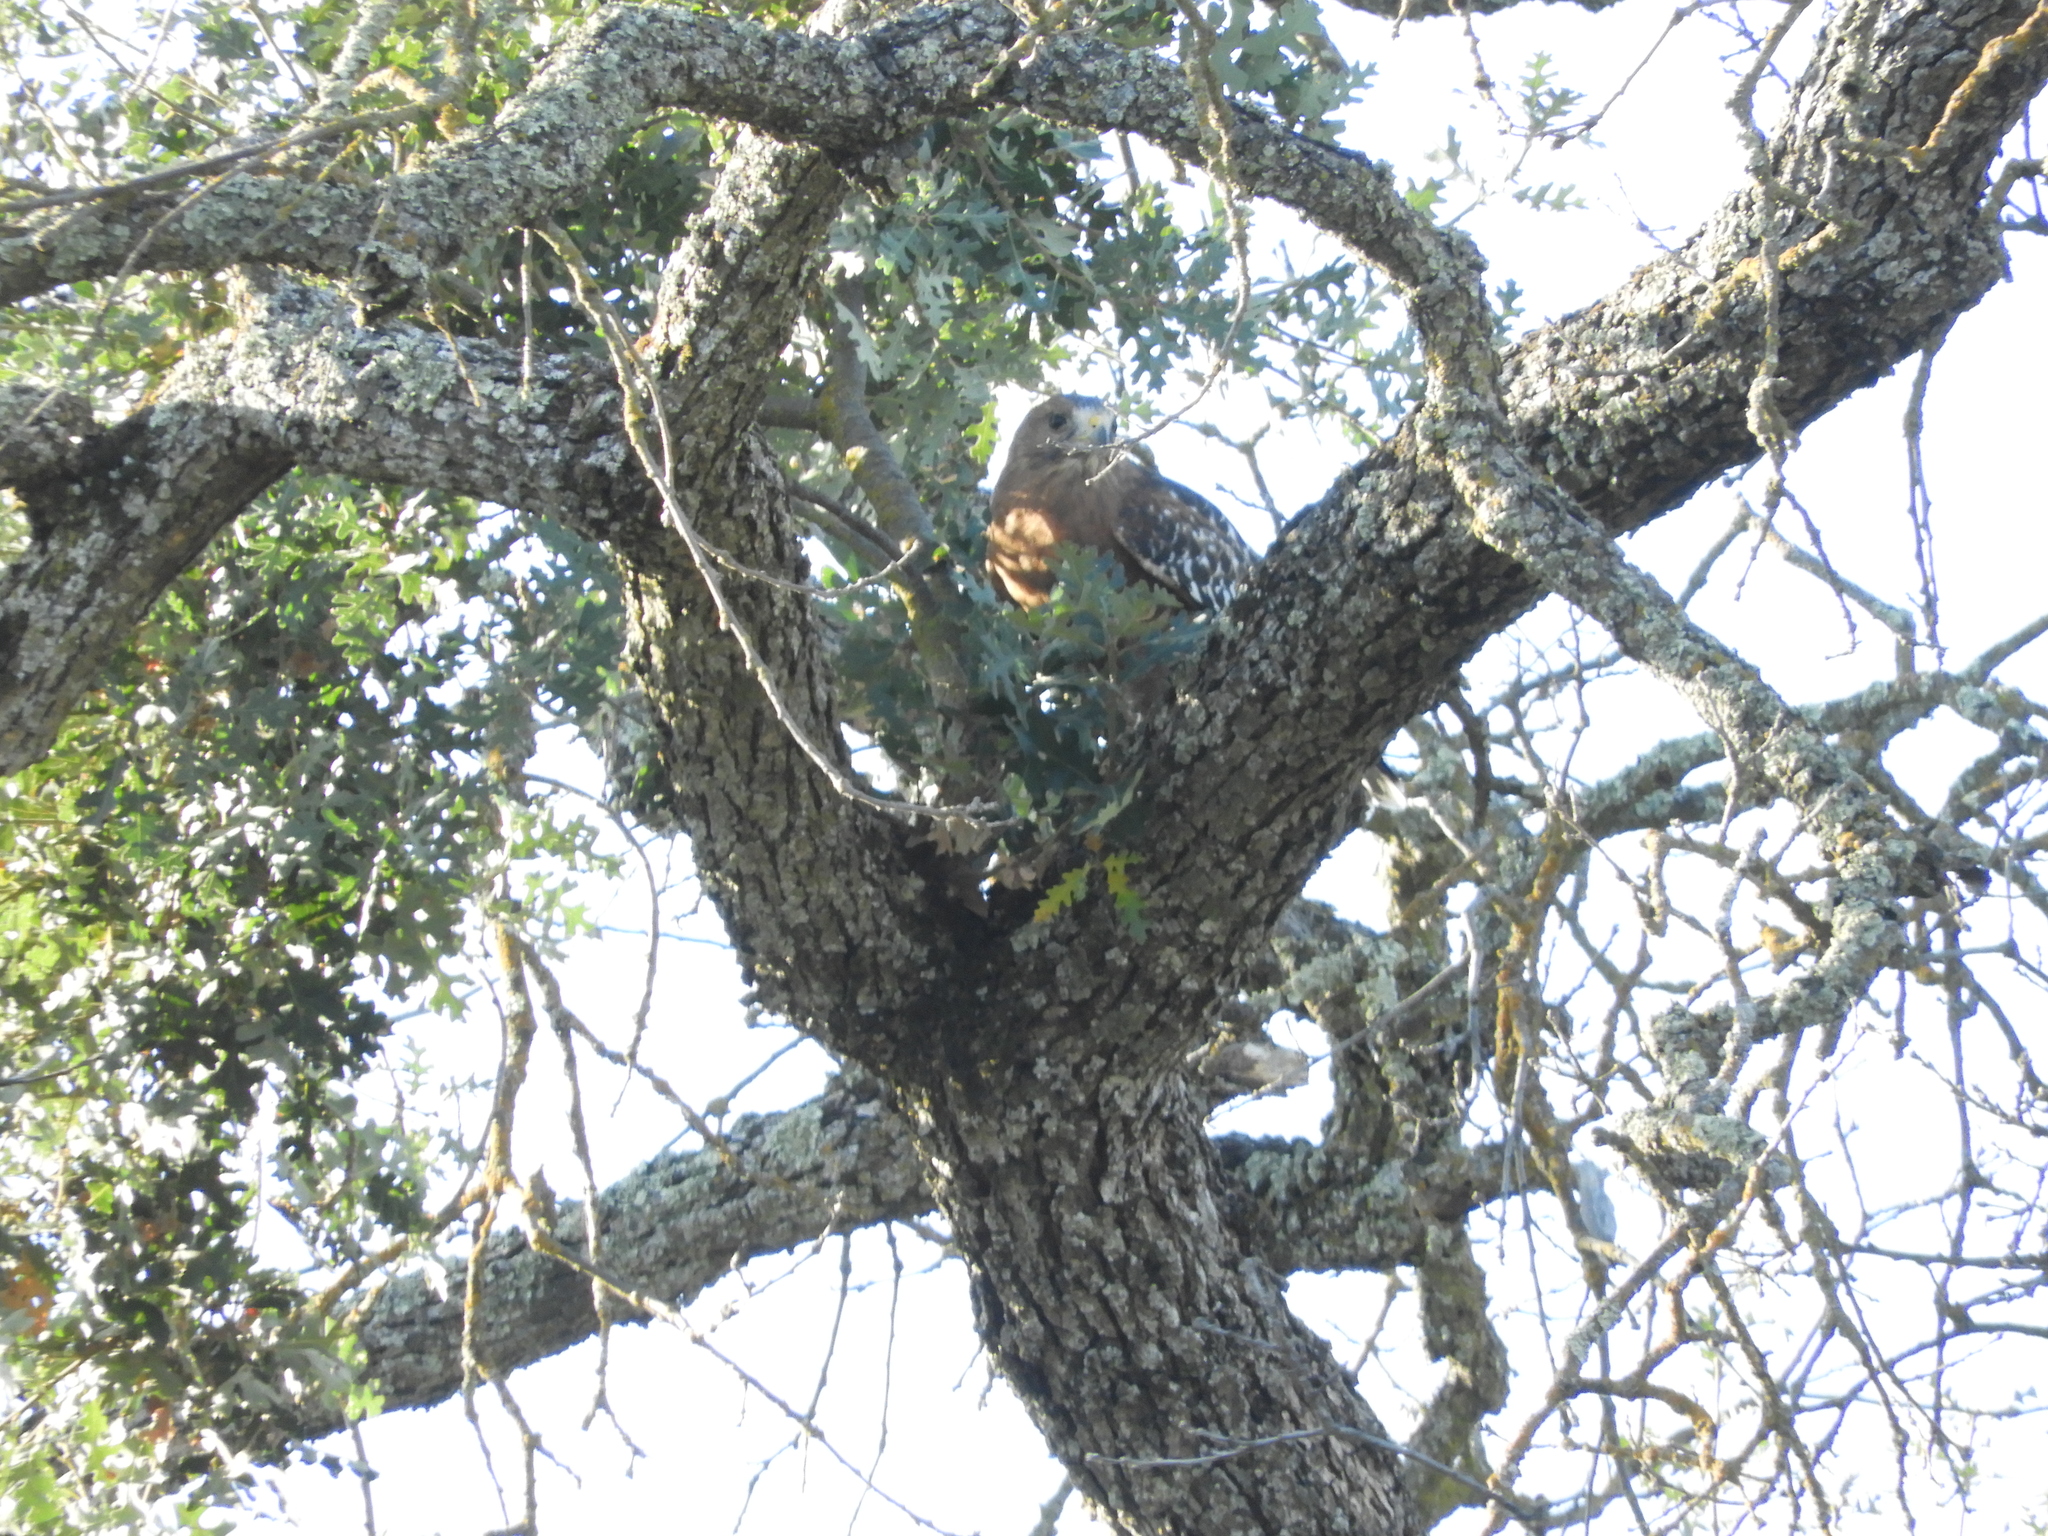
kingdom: Animalia
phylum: Chordata
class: Aves
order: Accipitriformes
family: Accipitridae
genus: Buteo
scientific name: Buteo lineatus
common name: Red-shouldered hawk
